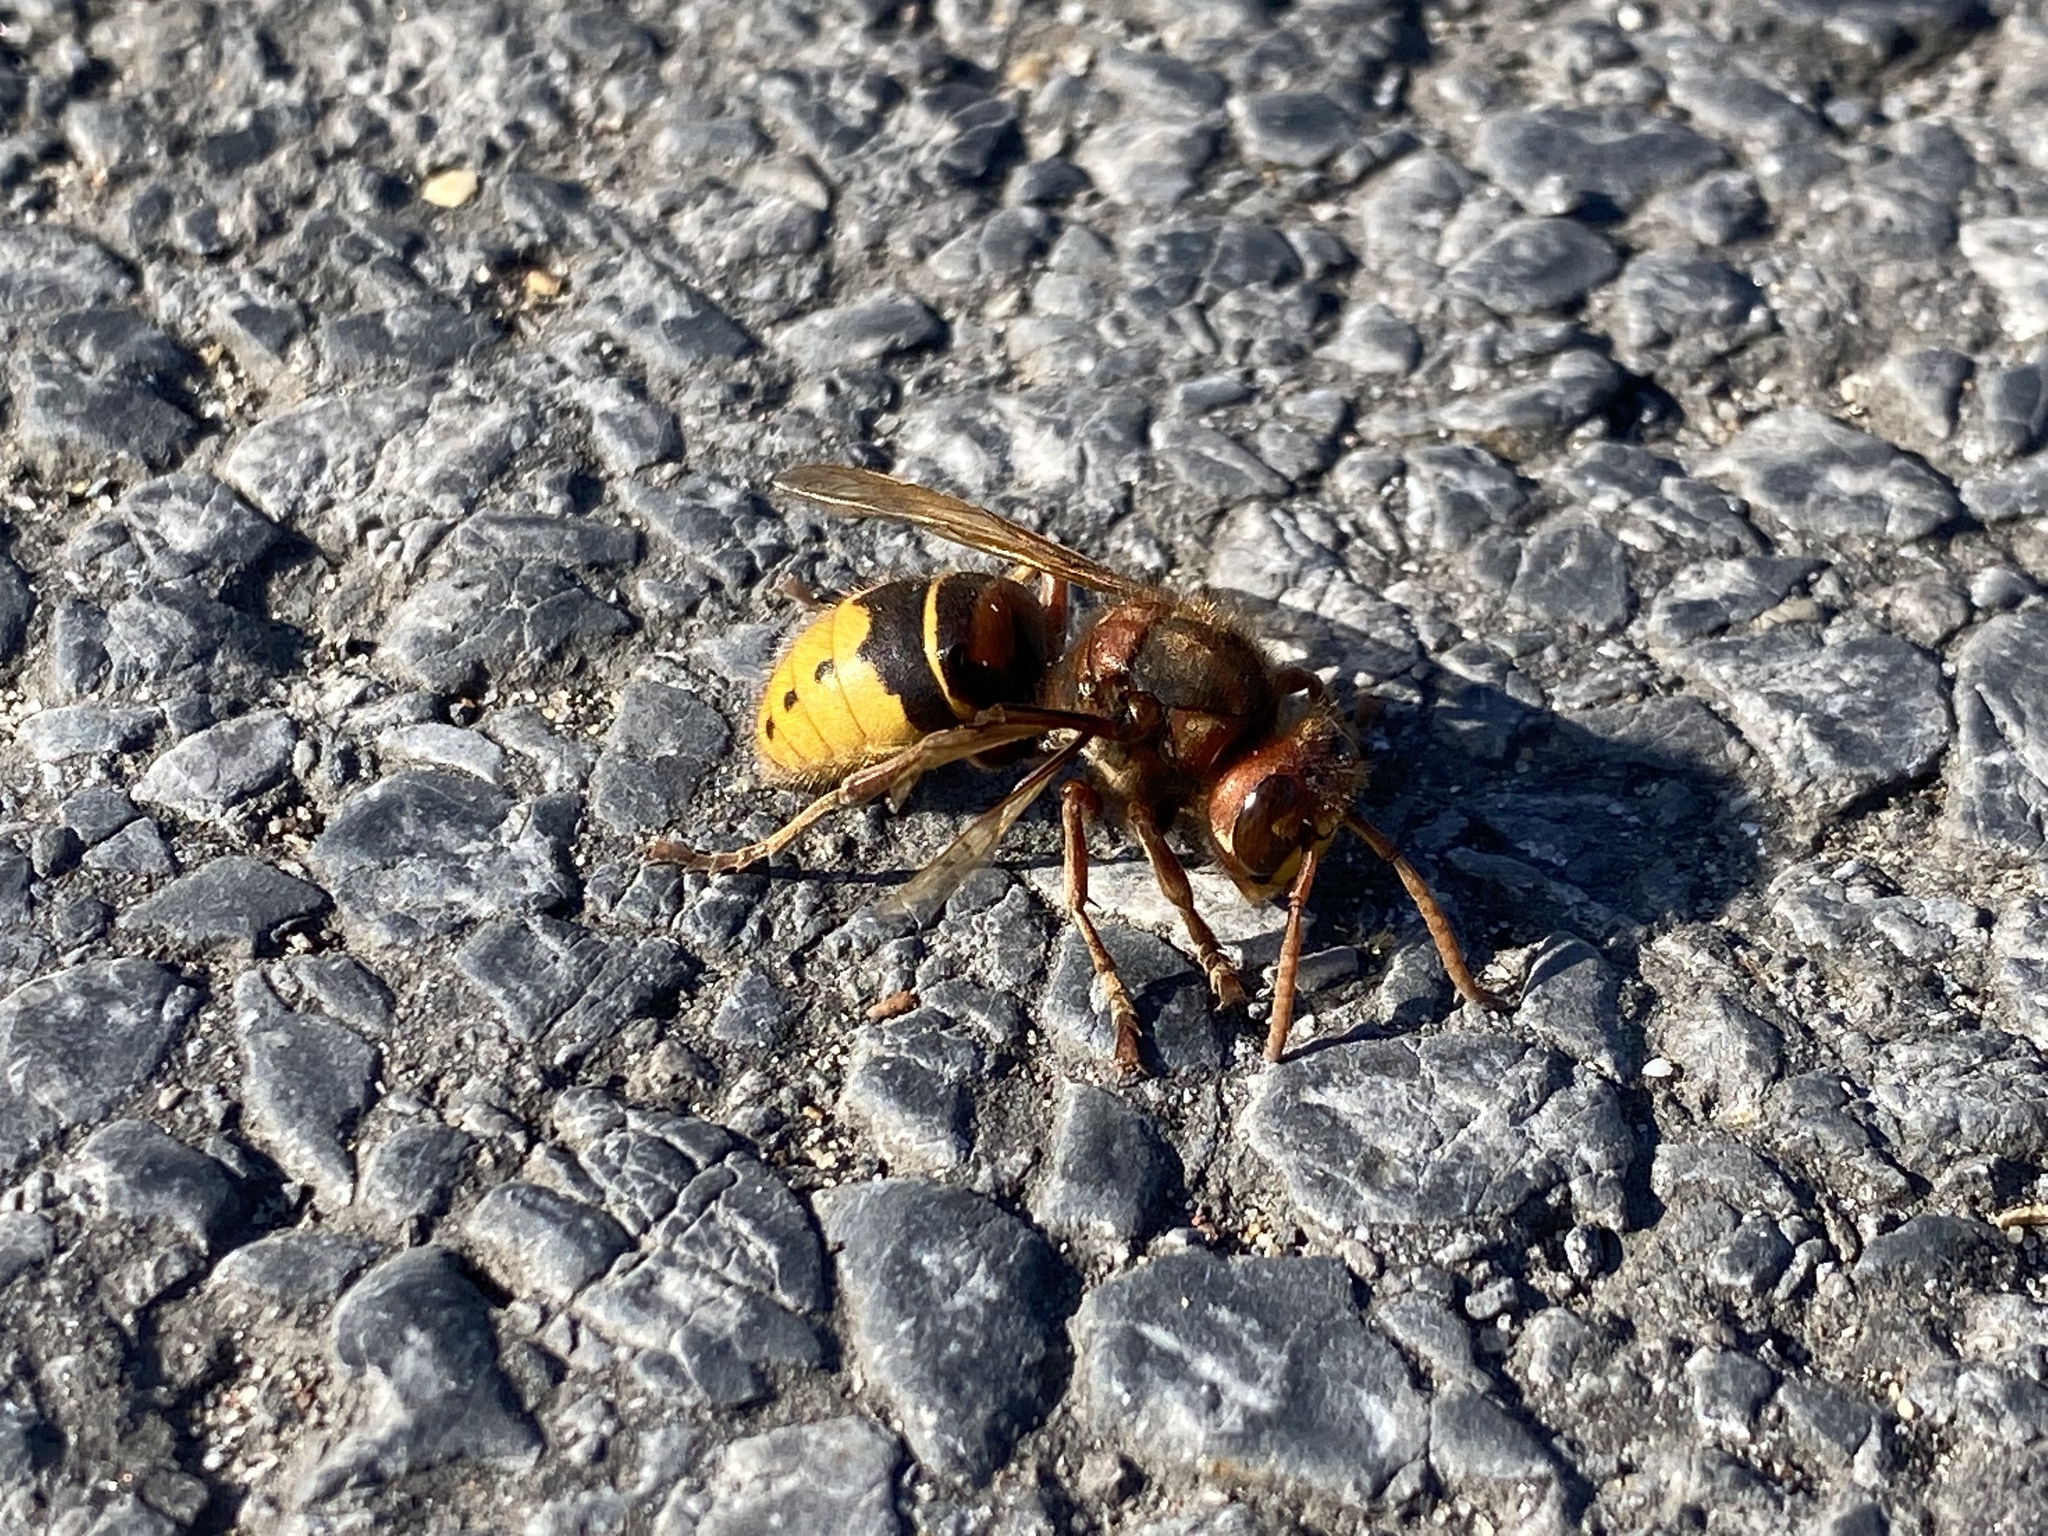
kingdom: Animalia
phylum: Arthropoda
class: Insecta
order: Hymenoptera
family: Vespidae
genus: Vespa
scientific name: Vespa crabro
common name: Hornet
